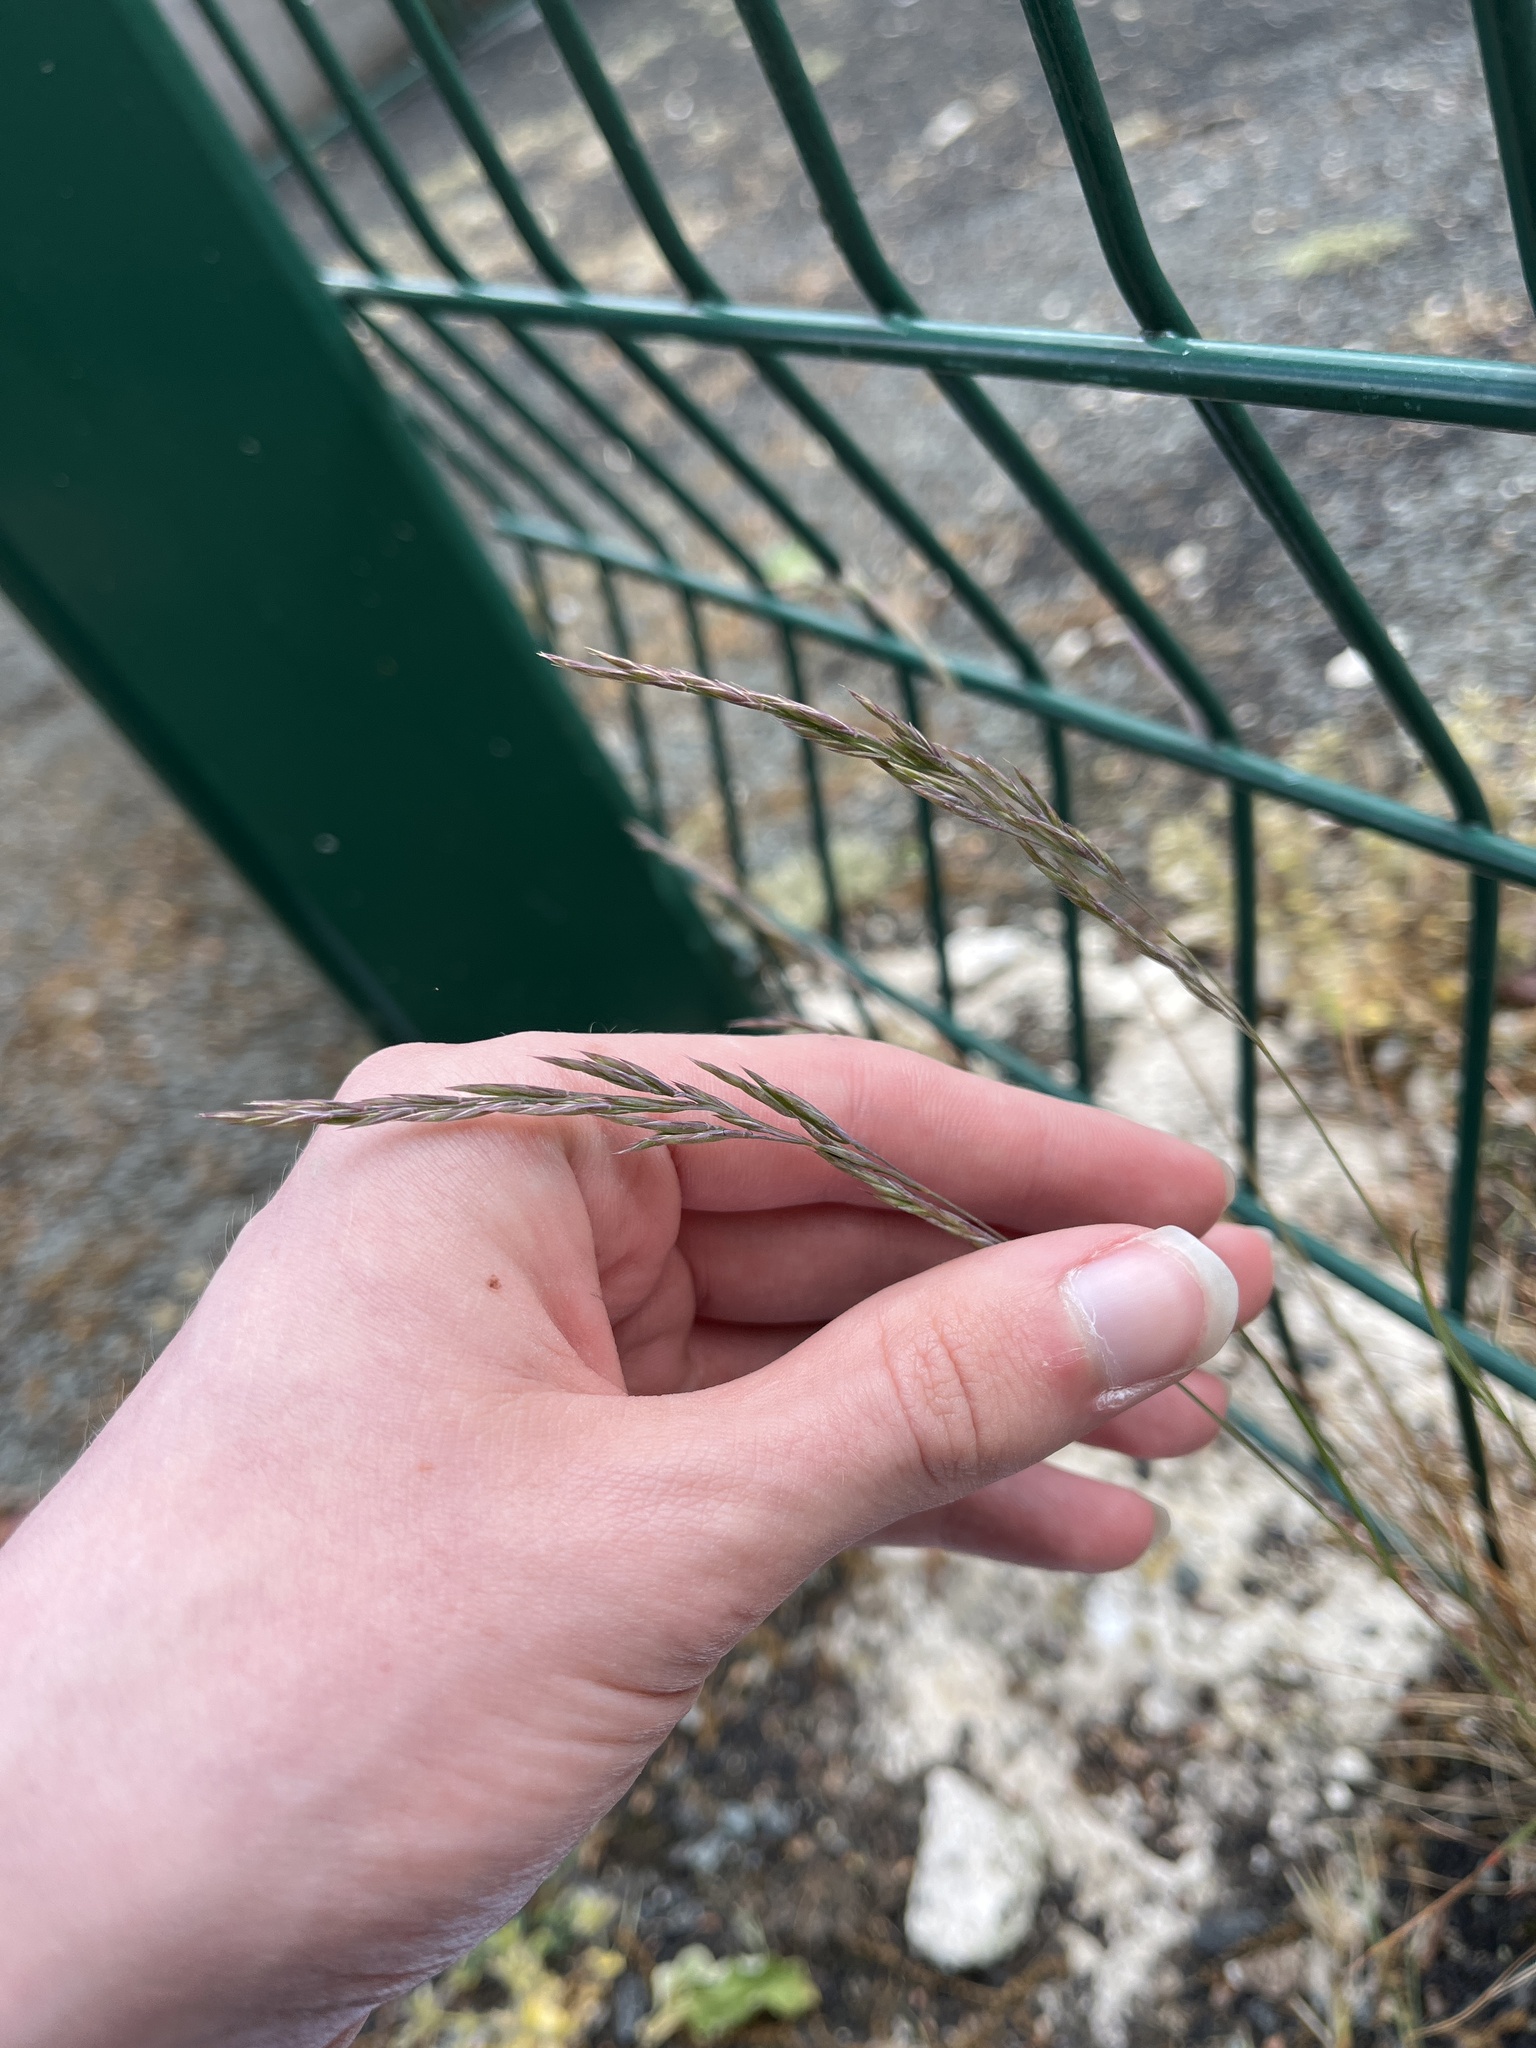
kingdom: Plantae
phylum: Tracheophyta
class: Liliopsida
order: Poales
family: Poaceae
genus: Festuca
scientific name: Festuca rubra
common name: Red fescue
